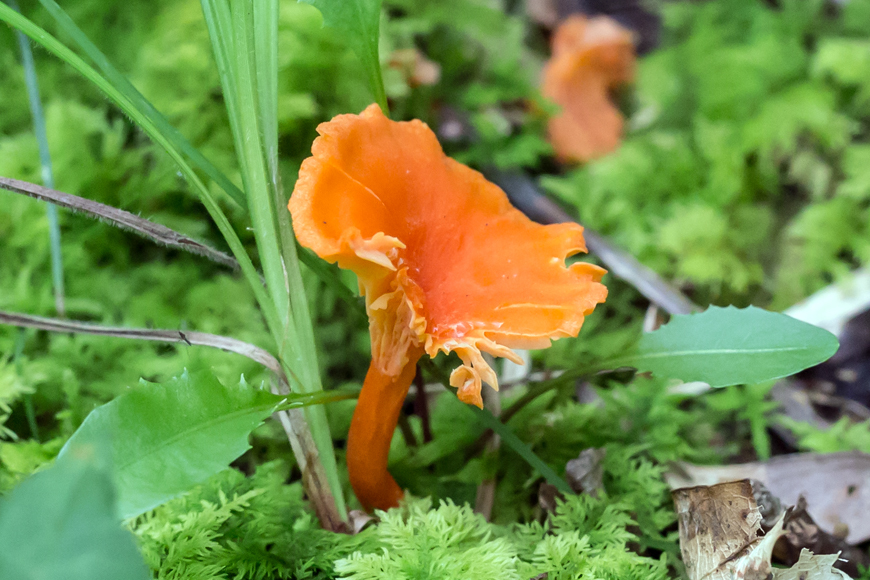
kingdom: Fungi
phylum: Basidiomycota
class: Agaricomycetes
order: Cantharellales
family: Hydnaceae
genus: Cantharellus
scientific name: Cantharellus cinnabarinus
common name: Cinnabar chanterelle
